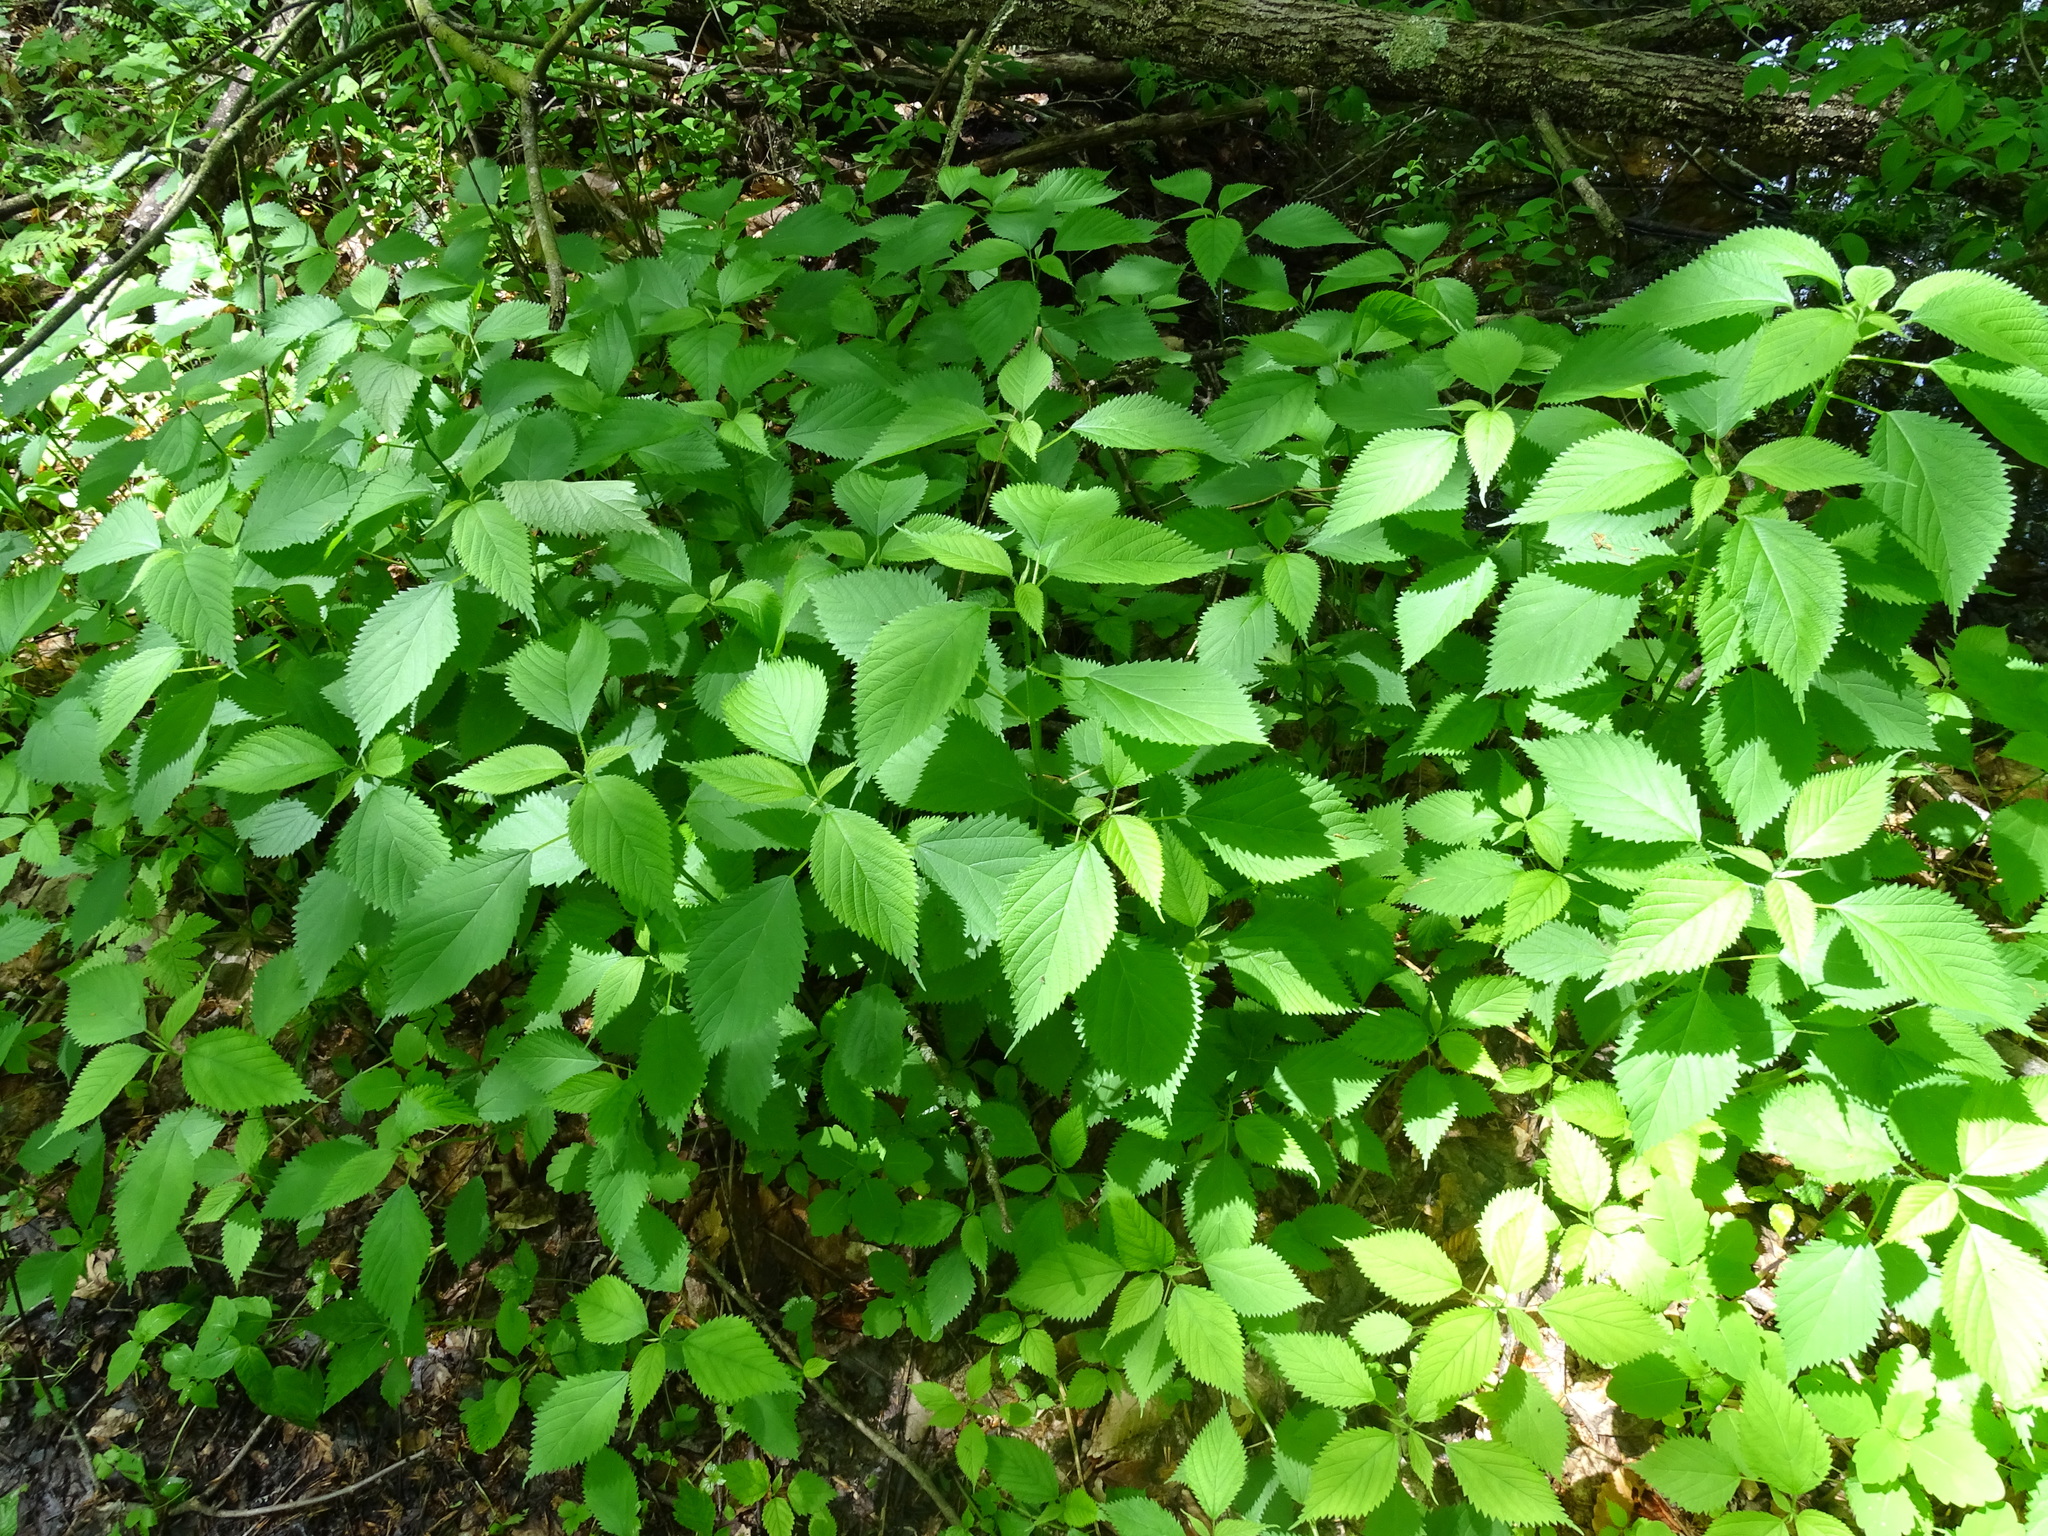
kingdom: Plantae
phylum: Tracheophyta
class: Magnoliopsida
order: Rosales
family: Urticaceae
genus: Laportea
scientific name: Laportea canadensis
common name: Canada nettle
